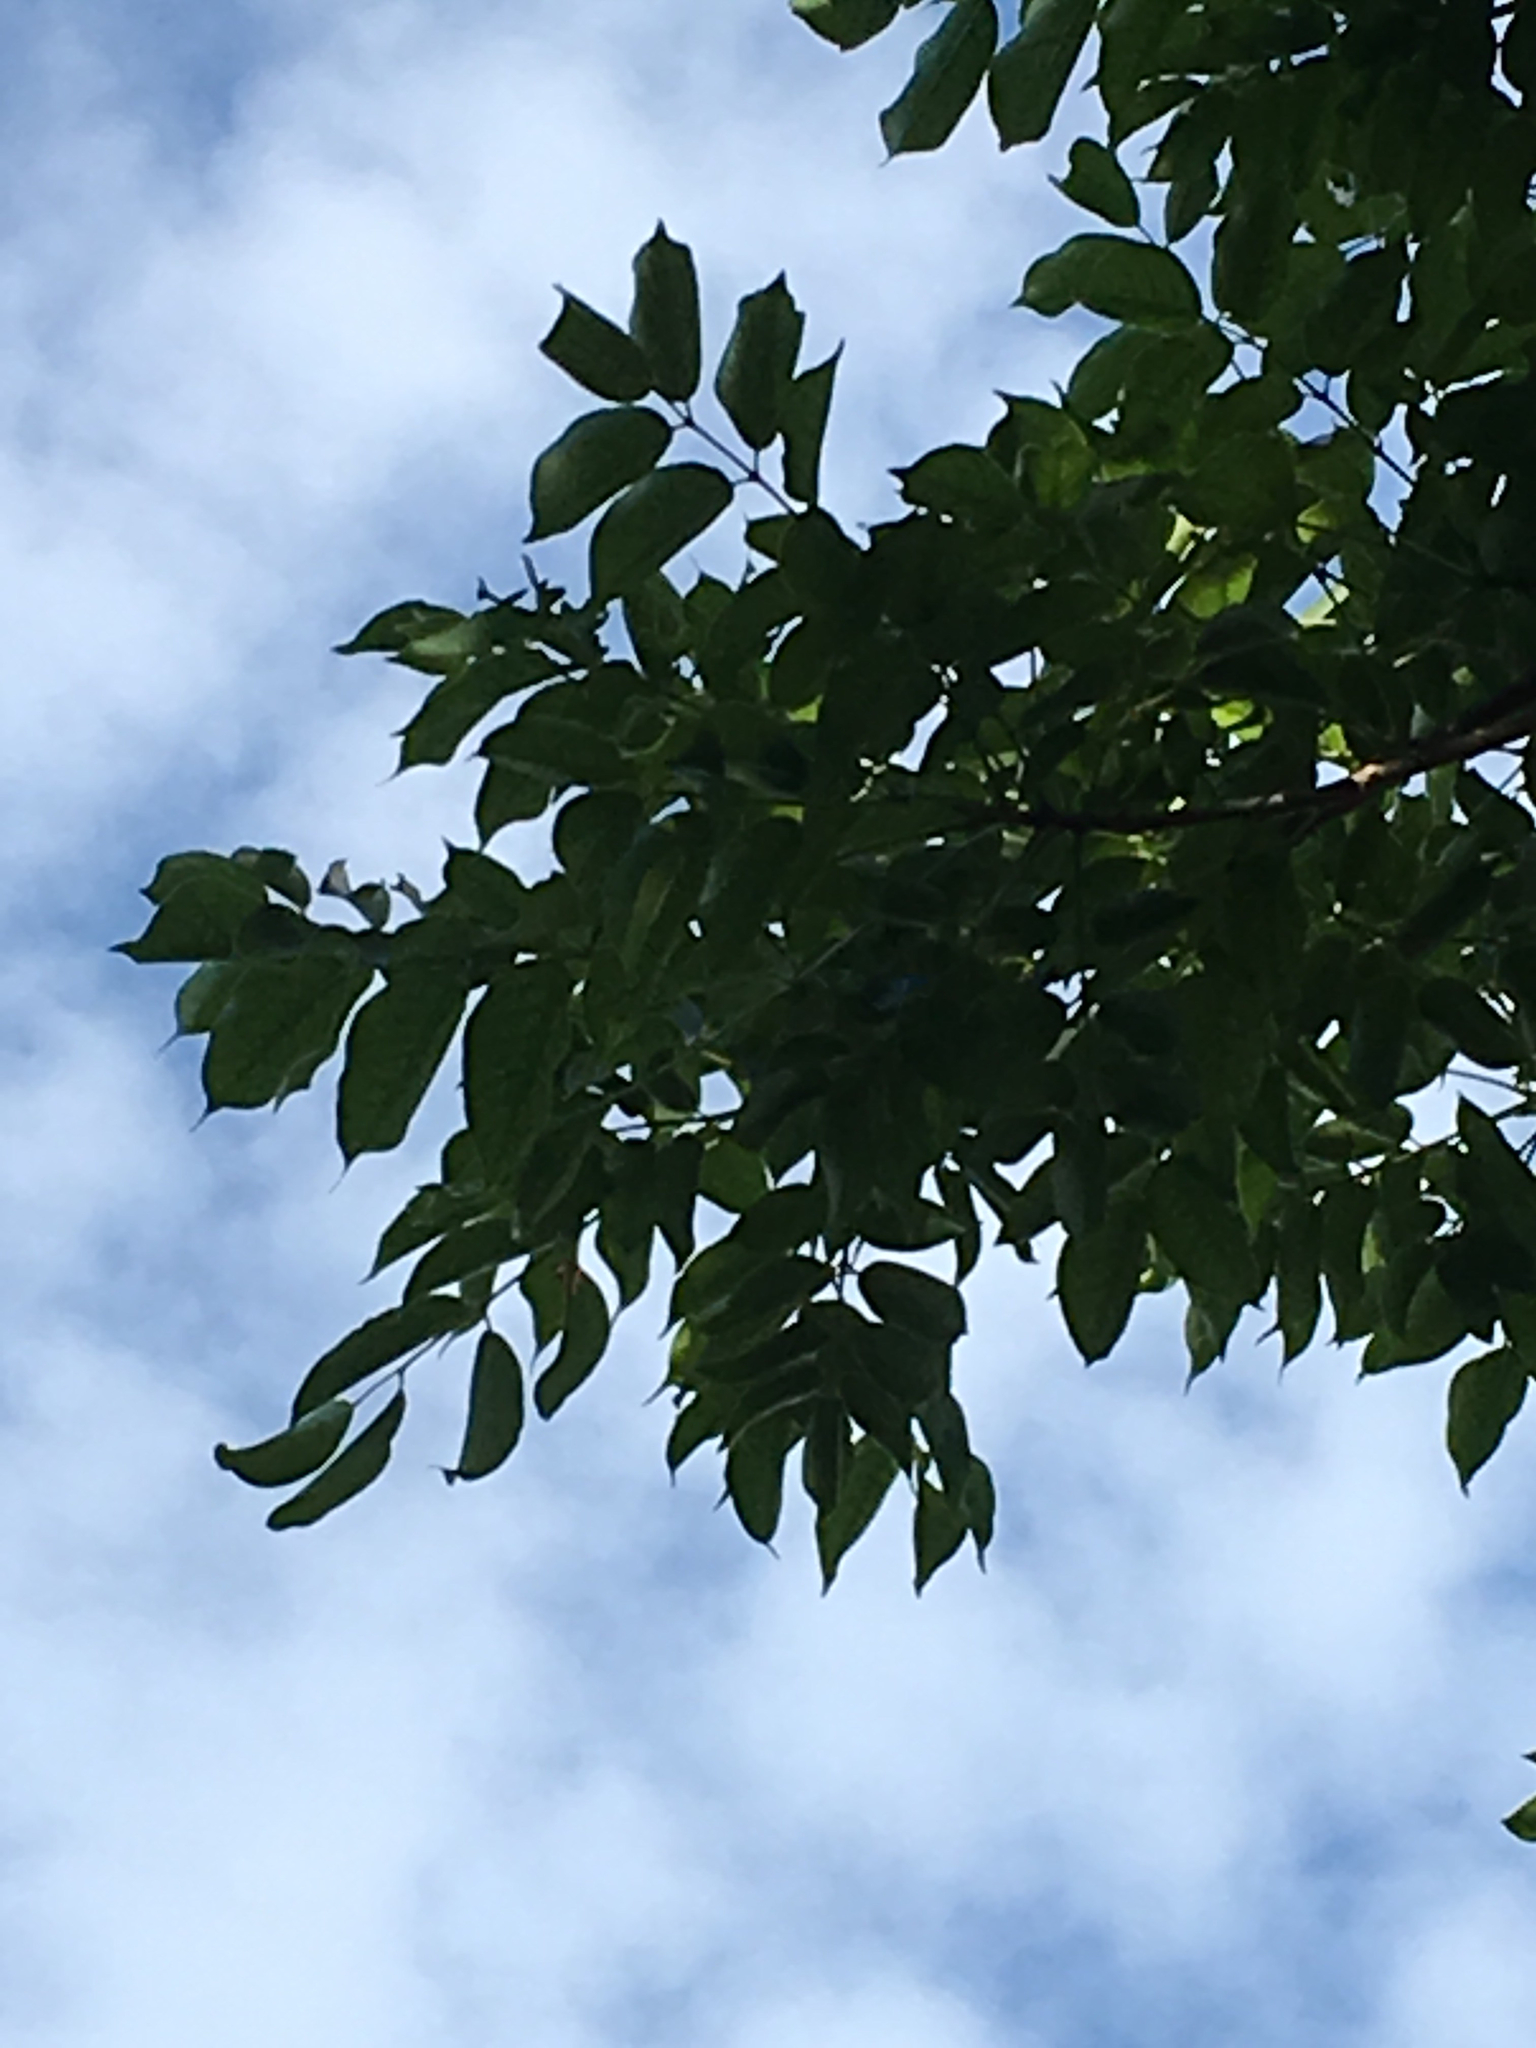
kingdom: Plantae
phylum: Tracheophyta
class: Magnoliopsida
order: Sapindales
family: Burseraceae
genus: Bursera
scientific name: Bursera simaruba
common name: Turpentine tree
